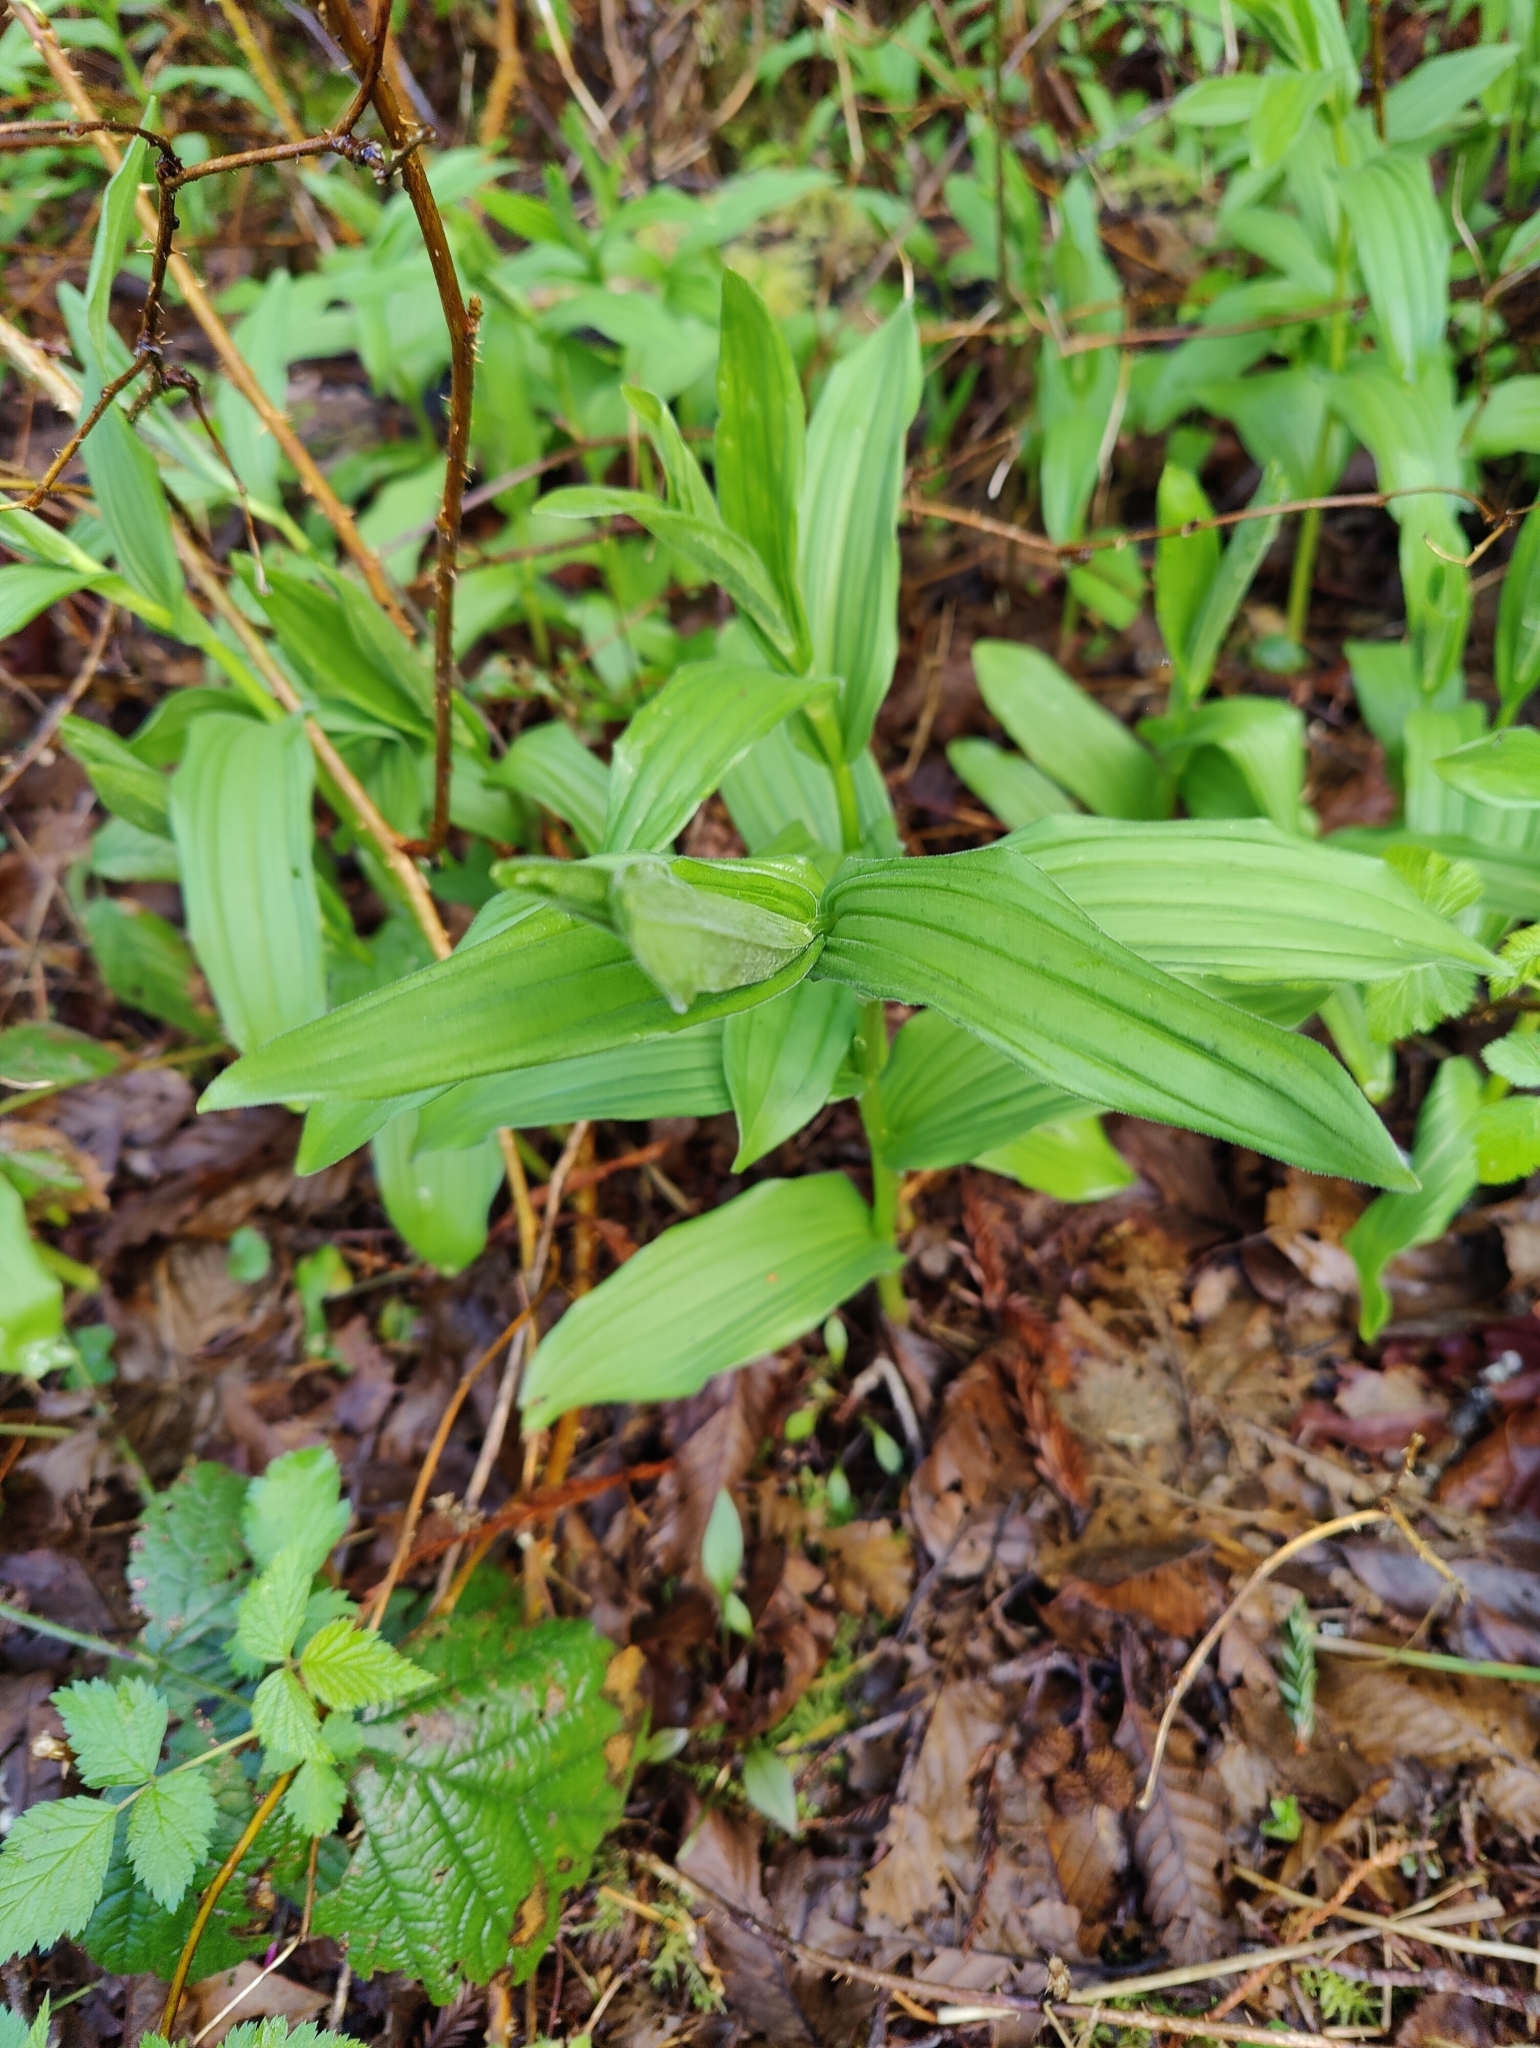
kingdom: Plantae
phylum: Tracheophyta
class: Liliopsida
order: Asparagales
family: Asparagaceae
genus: Maianthemum
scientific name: Maianthemum racemosum
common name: False spikenard
